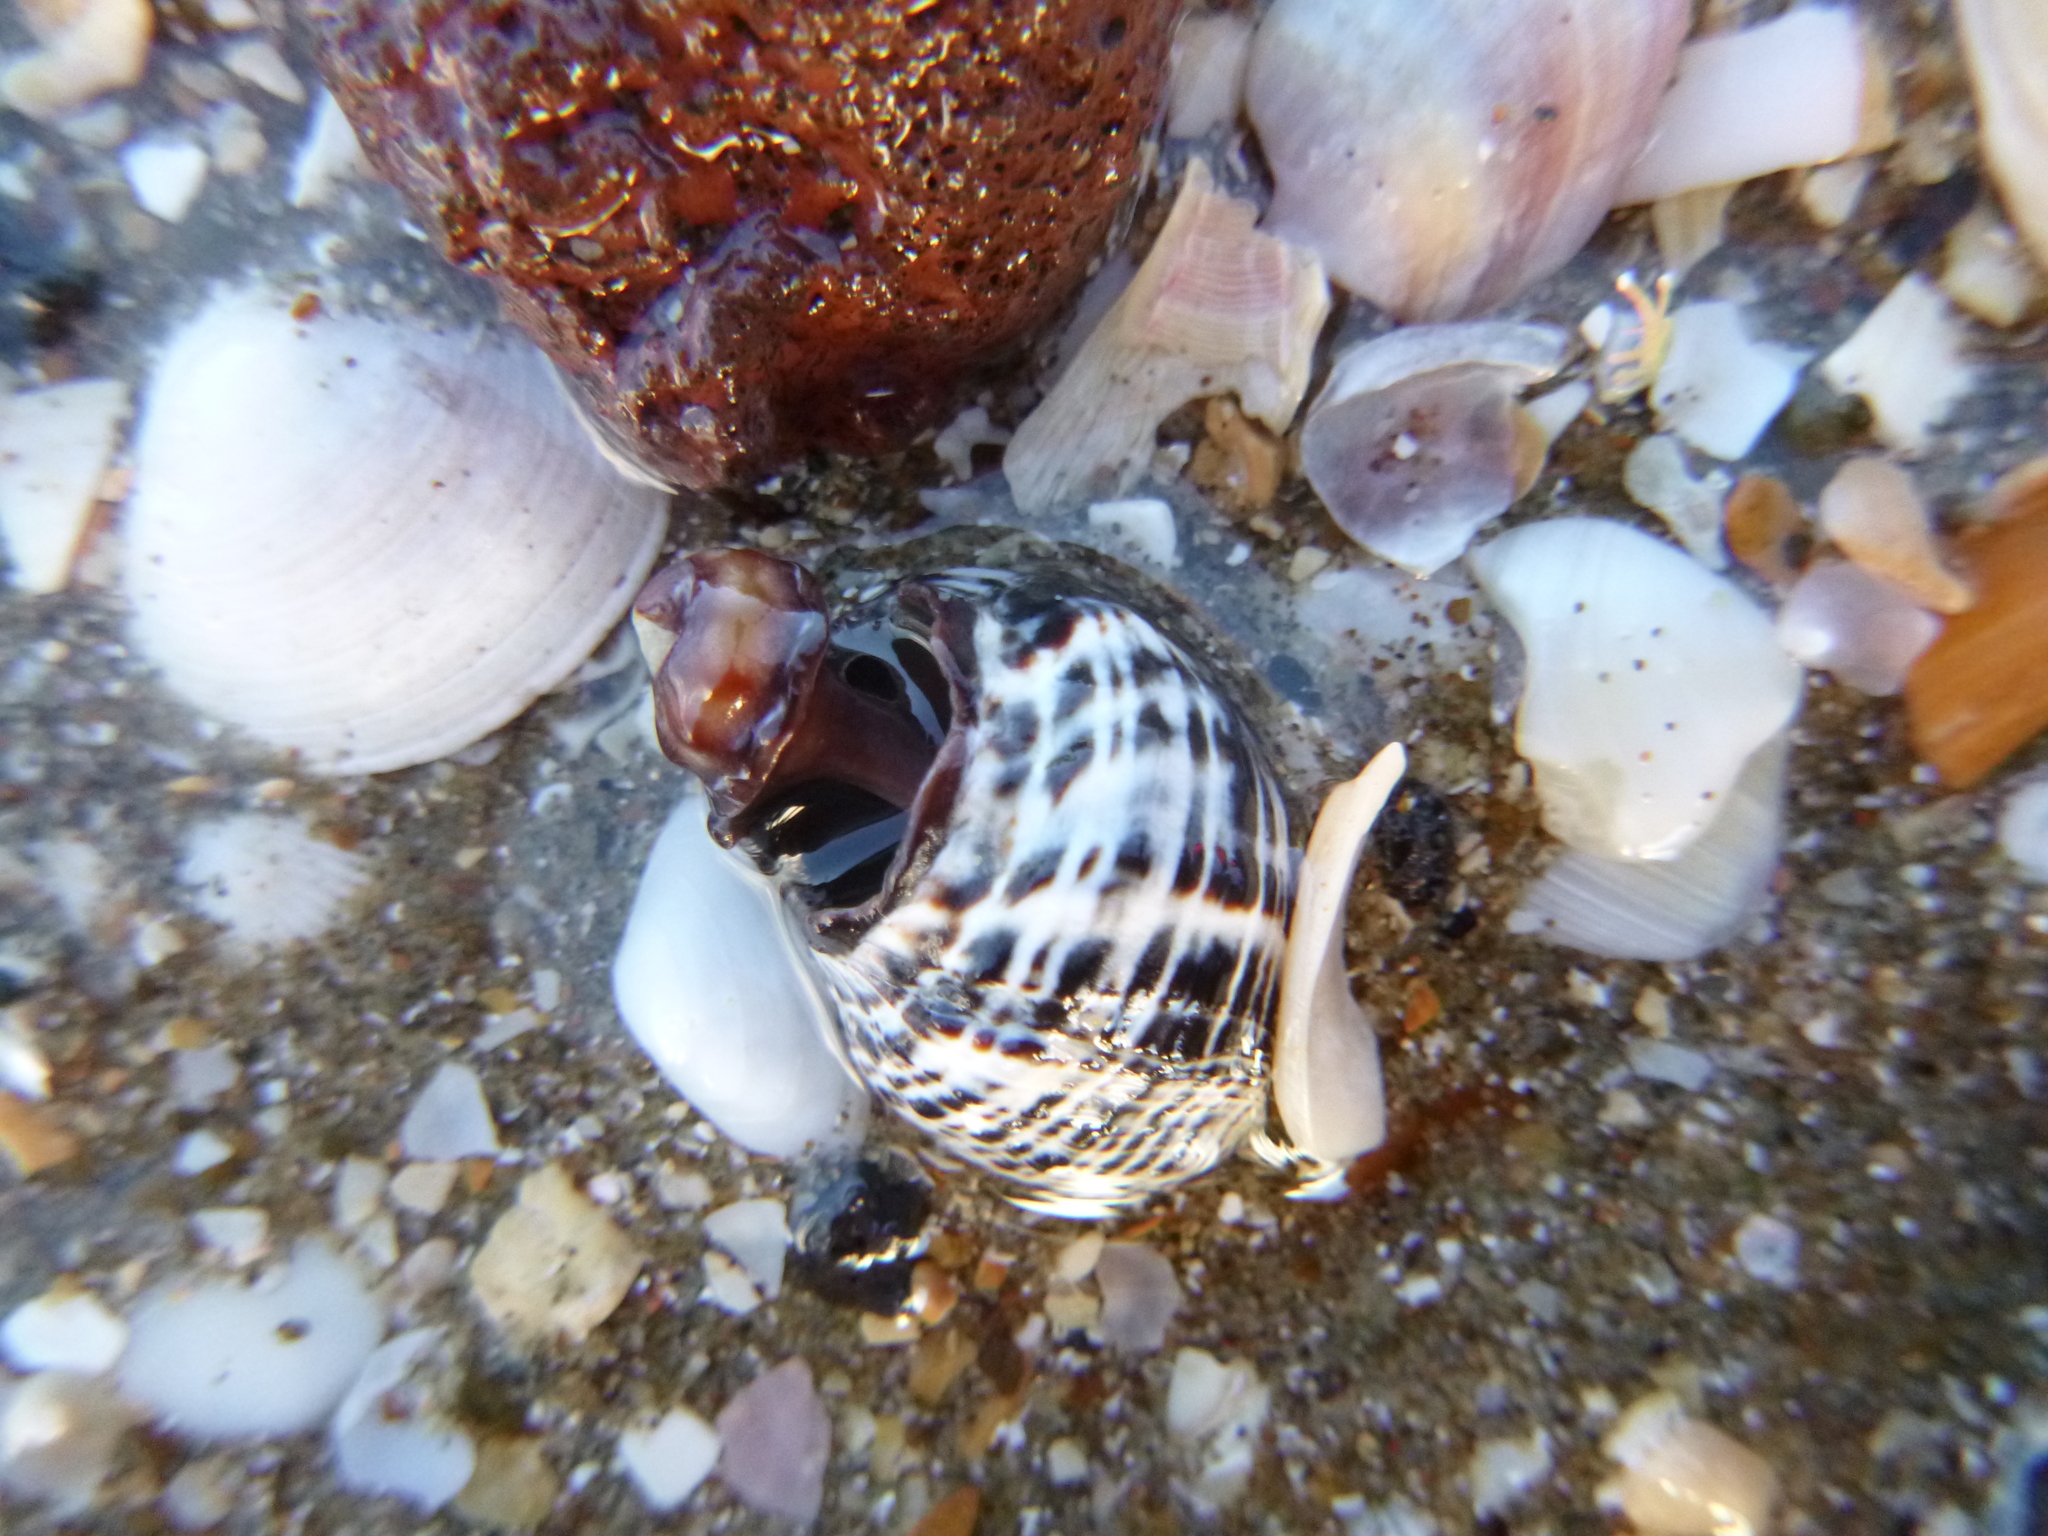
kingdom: Animalia
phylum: Mollusca
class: Gastropoda
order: Neogastropoda
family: Muricidae
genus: Haustrum
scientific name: Haustrum albomarginatum
